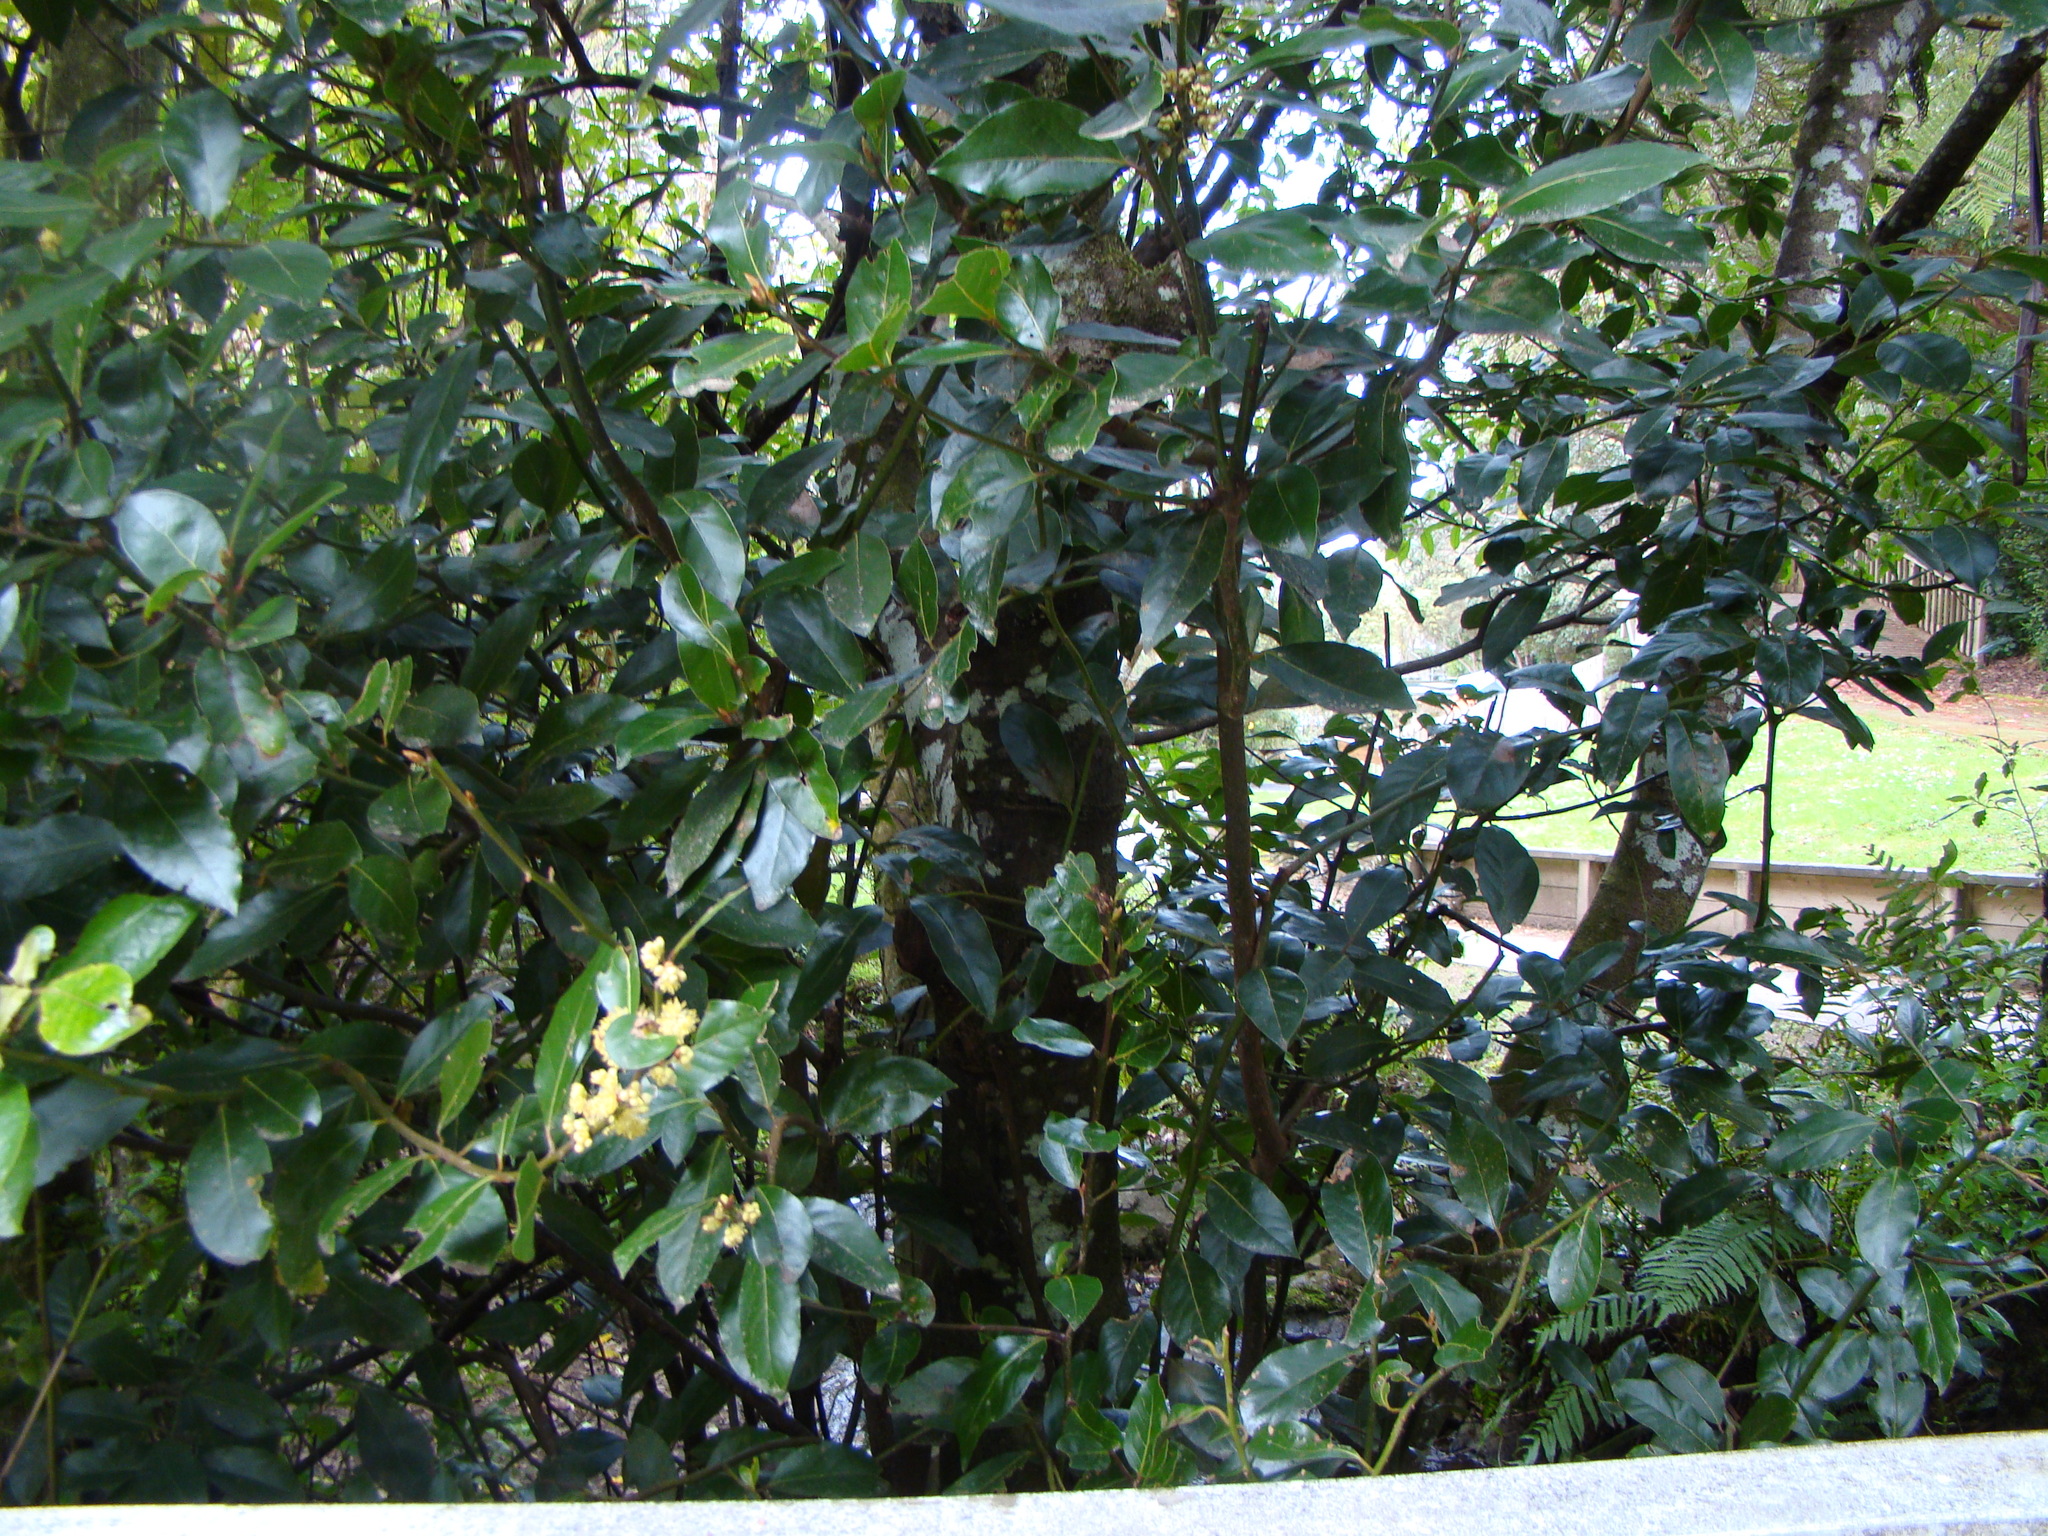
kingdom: Plantae
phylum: Tracheophyta
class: Magnoliopsida
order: Laurales
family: Lauraceae
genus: Laurus
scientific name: Laurus nobilis
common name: Bay
